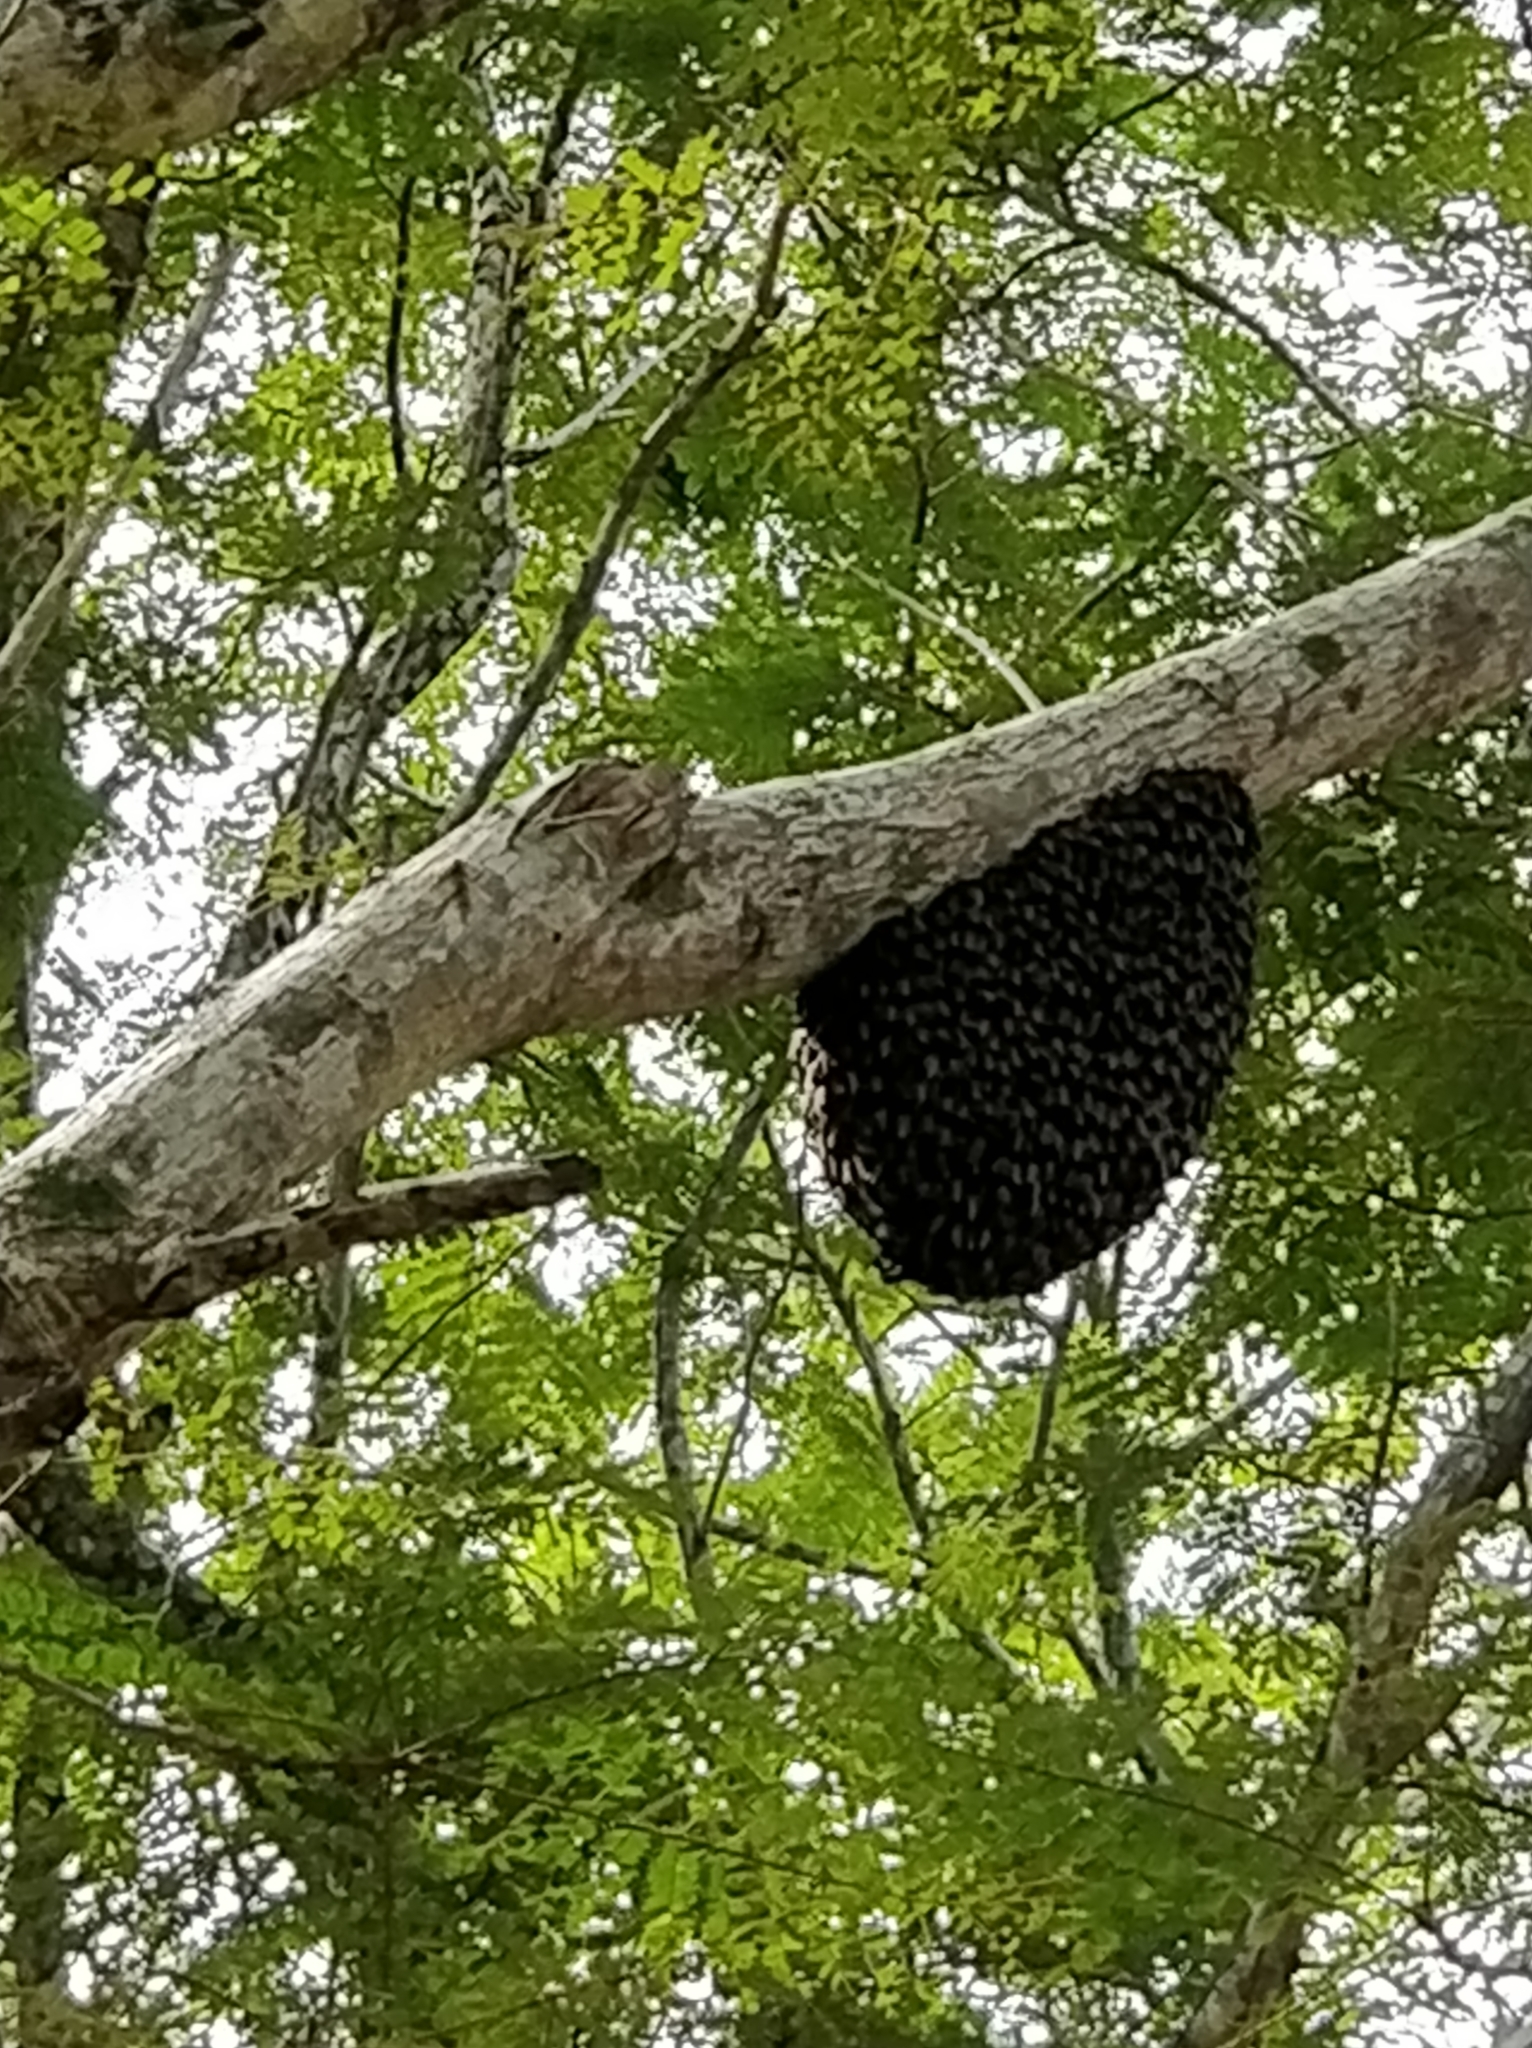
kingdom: Animalia
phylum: Arthropoda
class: Insecta
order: Hymenoptera
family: Apidae
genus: Apis
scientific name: Apis dorsata
